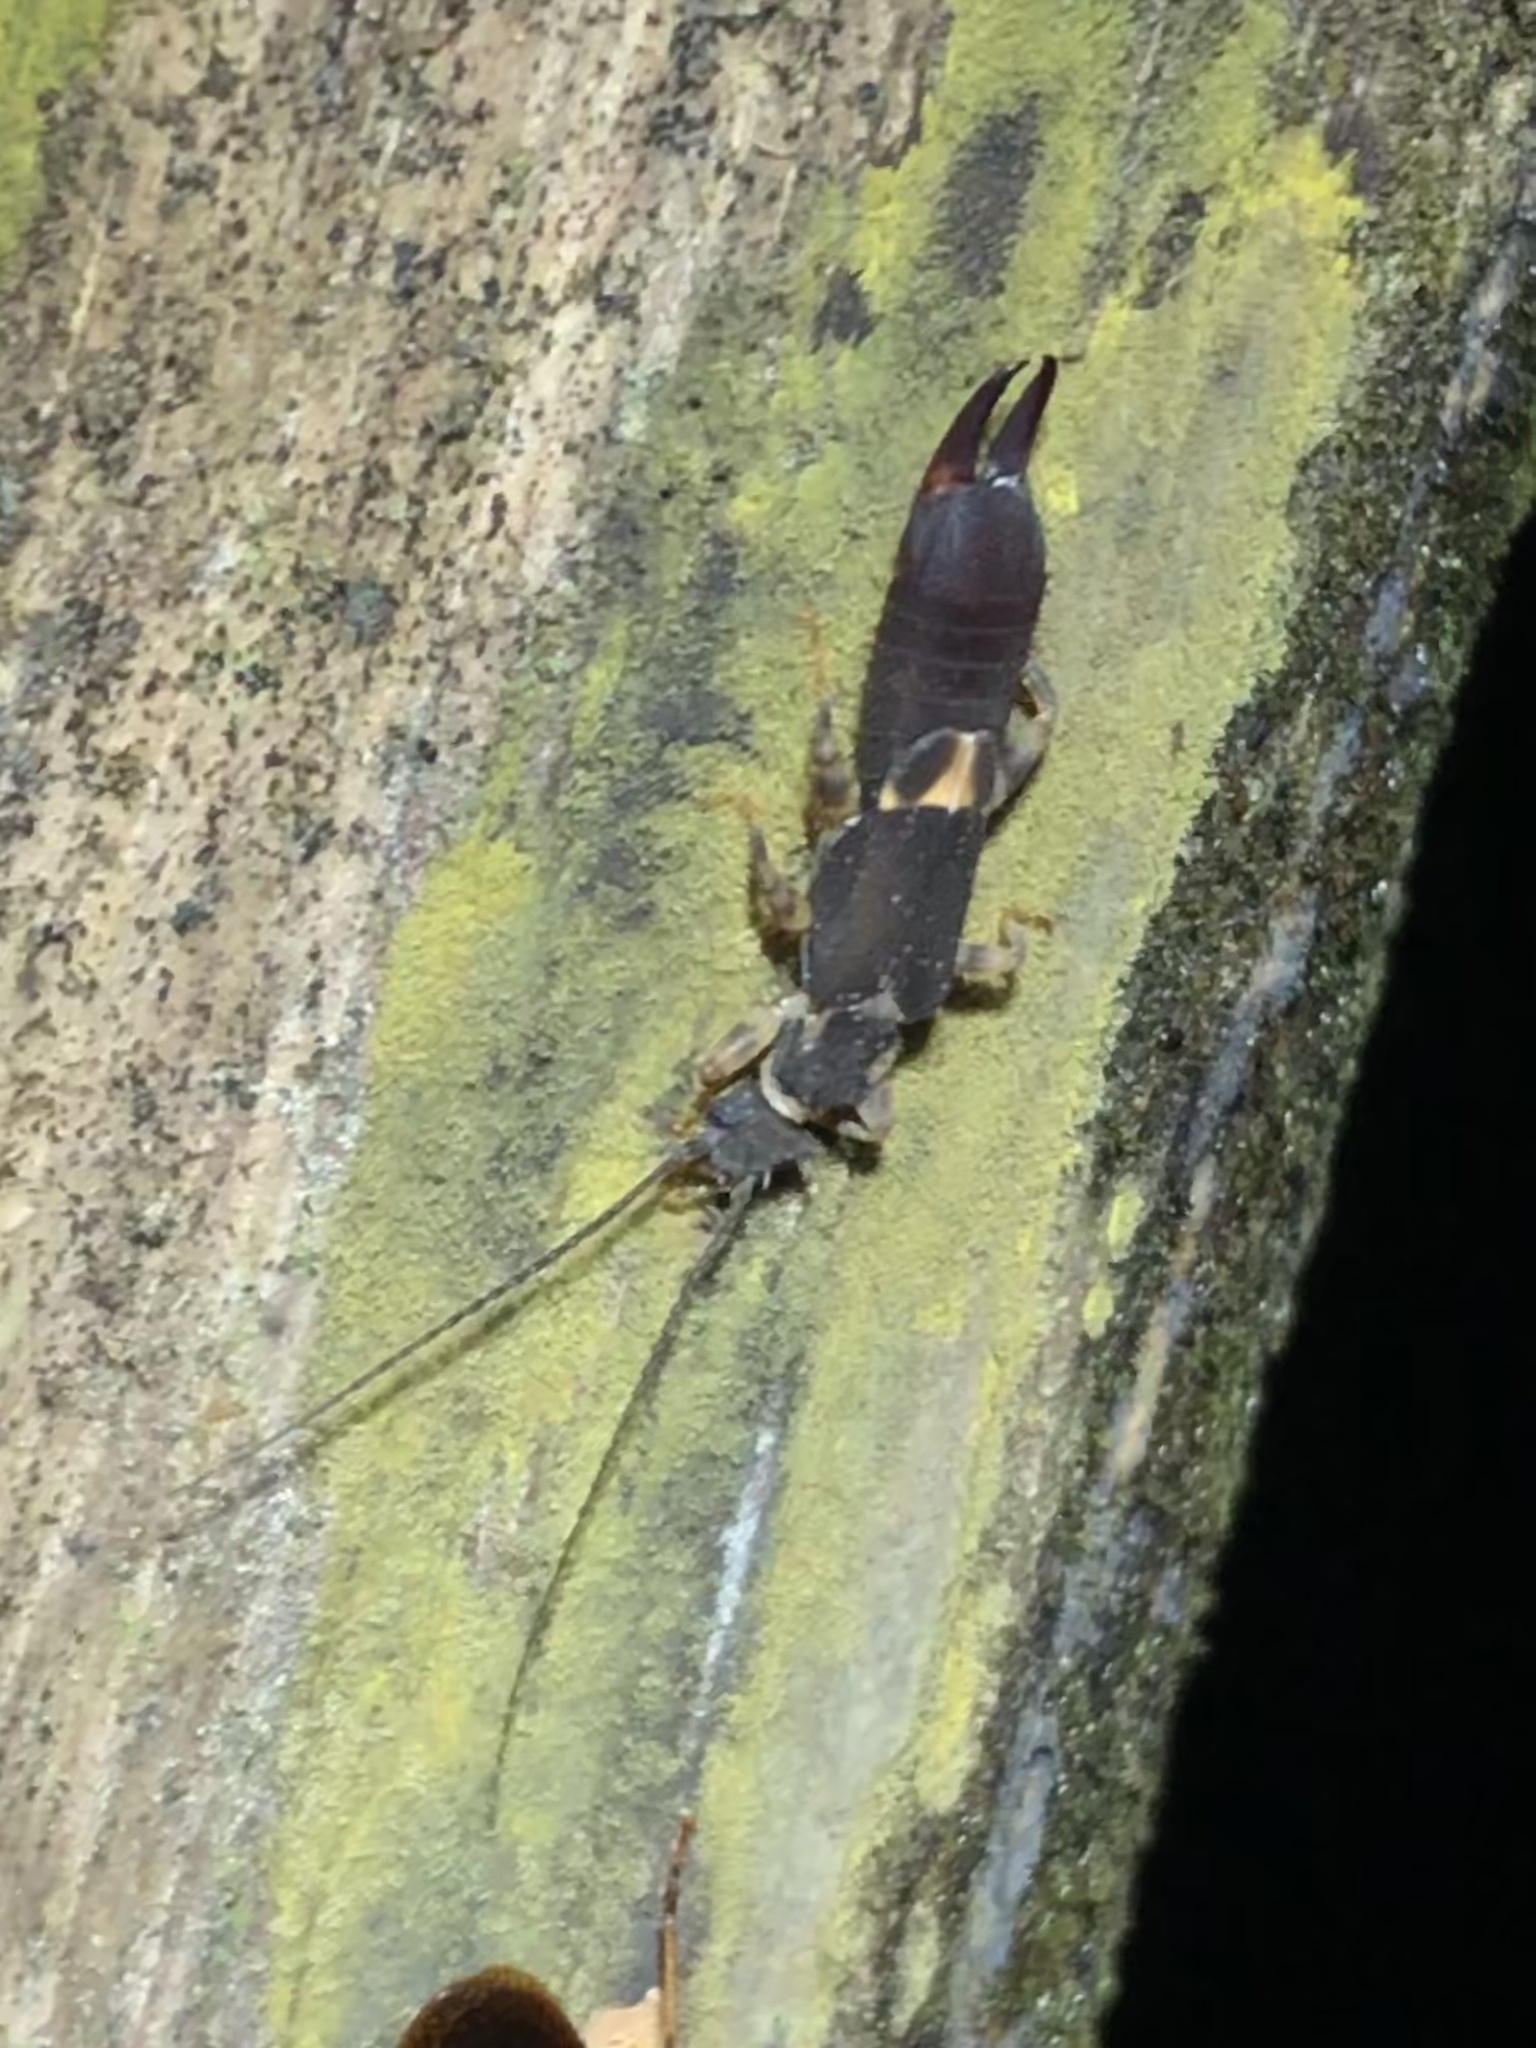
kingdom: Animalia
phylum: Arthropoda
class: Insecta
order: Dermaptera
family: Pygidicranidae
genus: Pyragropsis
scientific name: Pyragropsis emarginata
